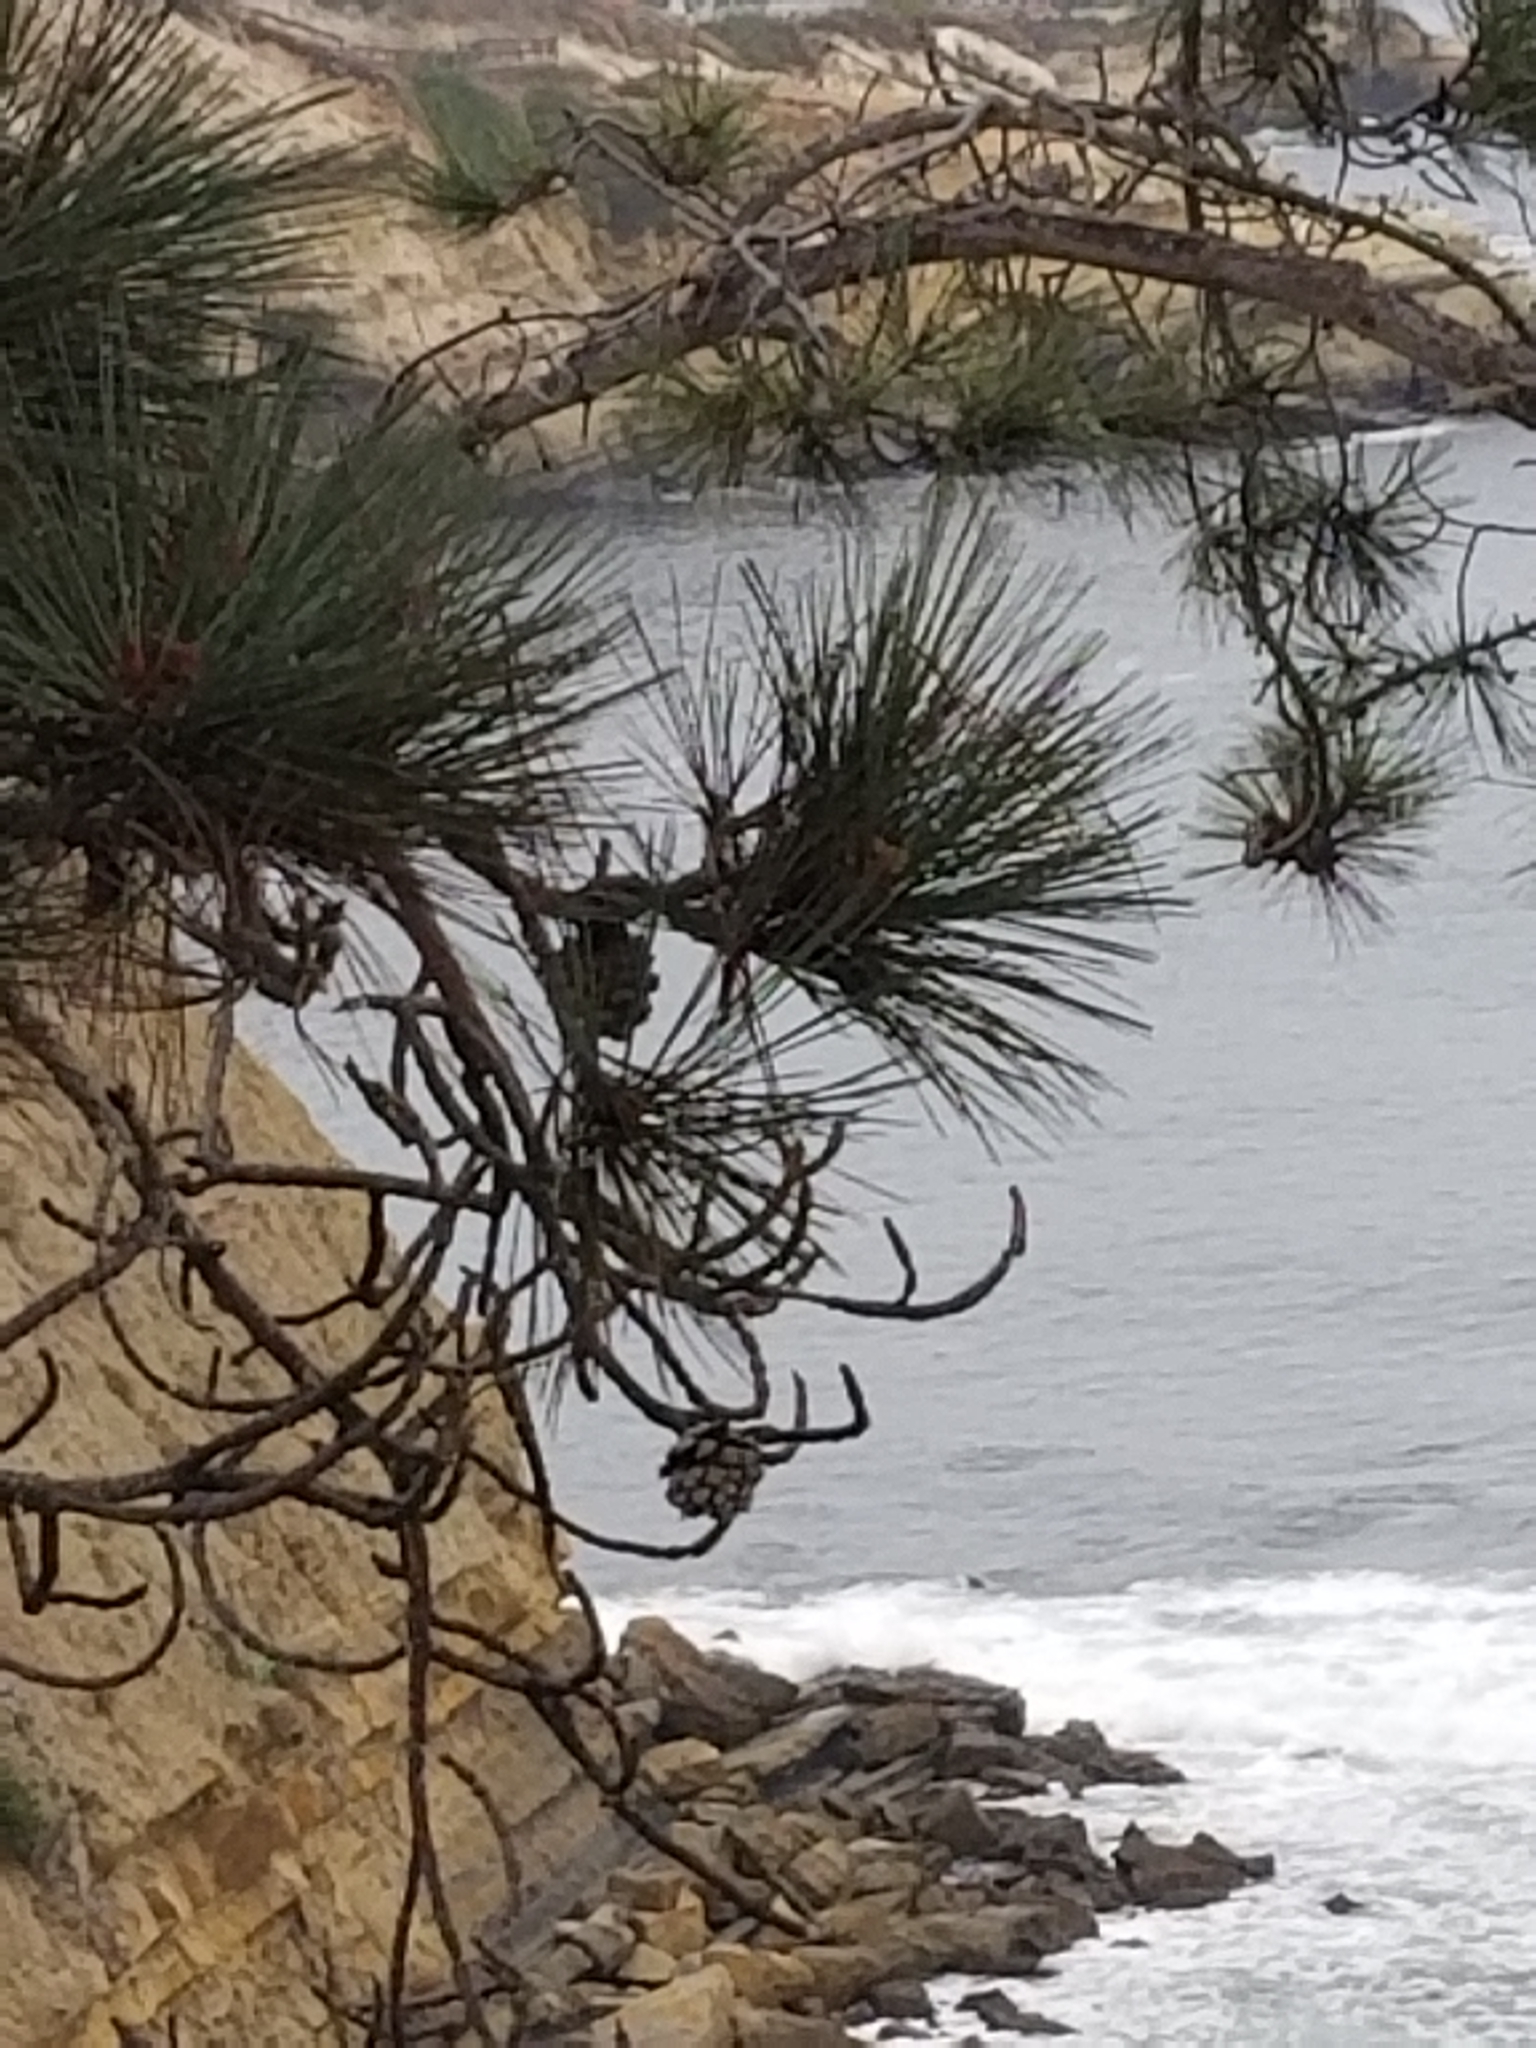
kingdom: Plantae
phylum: Tracheophyta
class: Pinopsida
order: Pinales
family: Pinaceae
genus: Pinus
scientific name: Pinus torreyana
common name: Torrey pine
